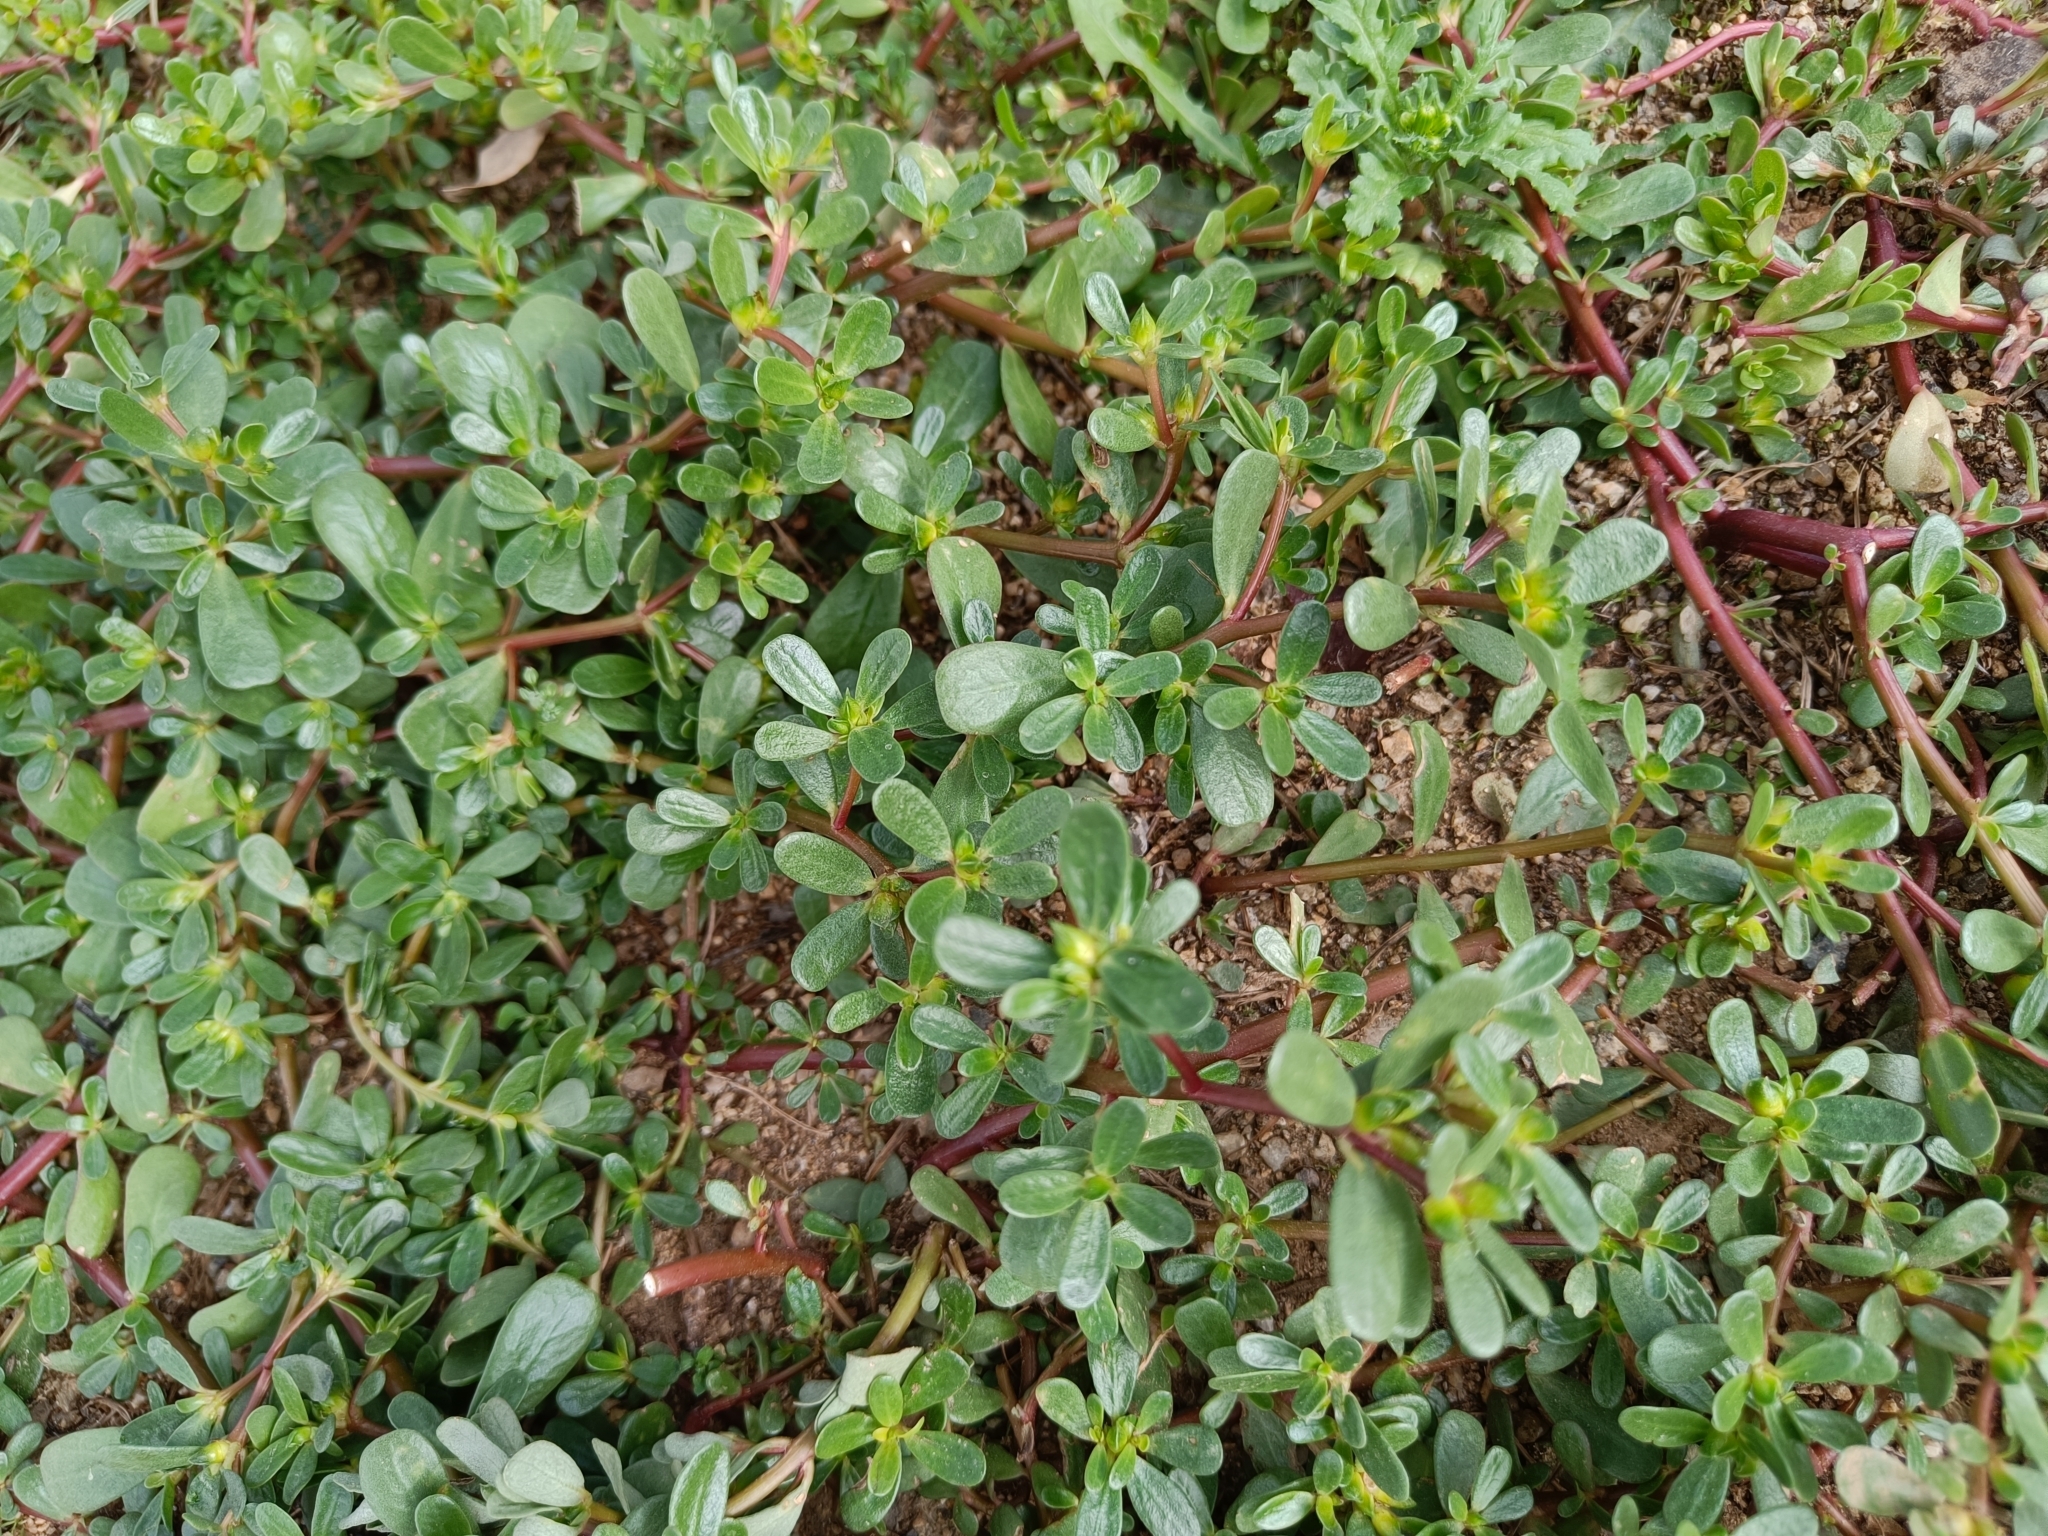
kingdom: Plantae
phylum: Tracheophyta
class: Magnoliopsida
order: Caryophyllales
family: Portulacaceae
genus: Portulaca
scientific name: Portulaca oleracea
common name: Common purslane
